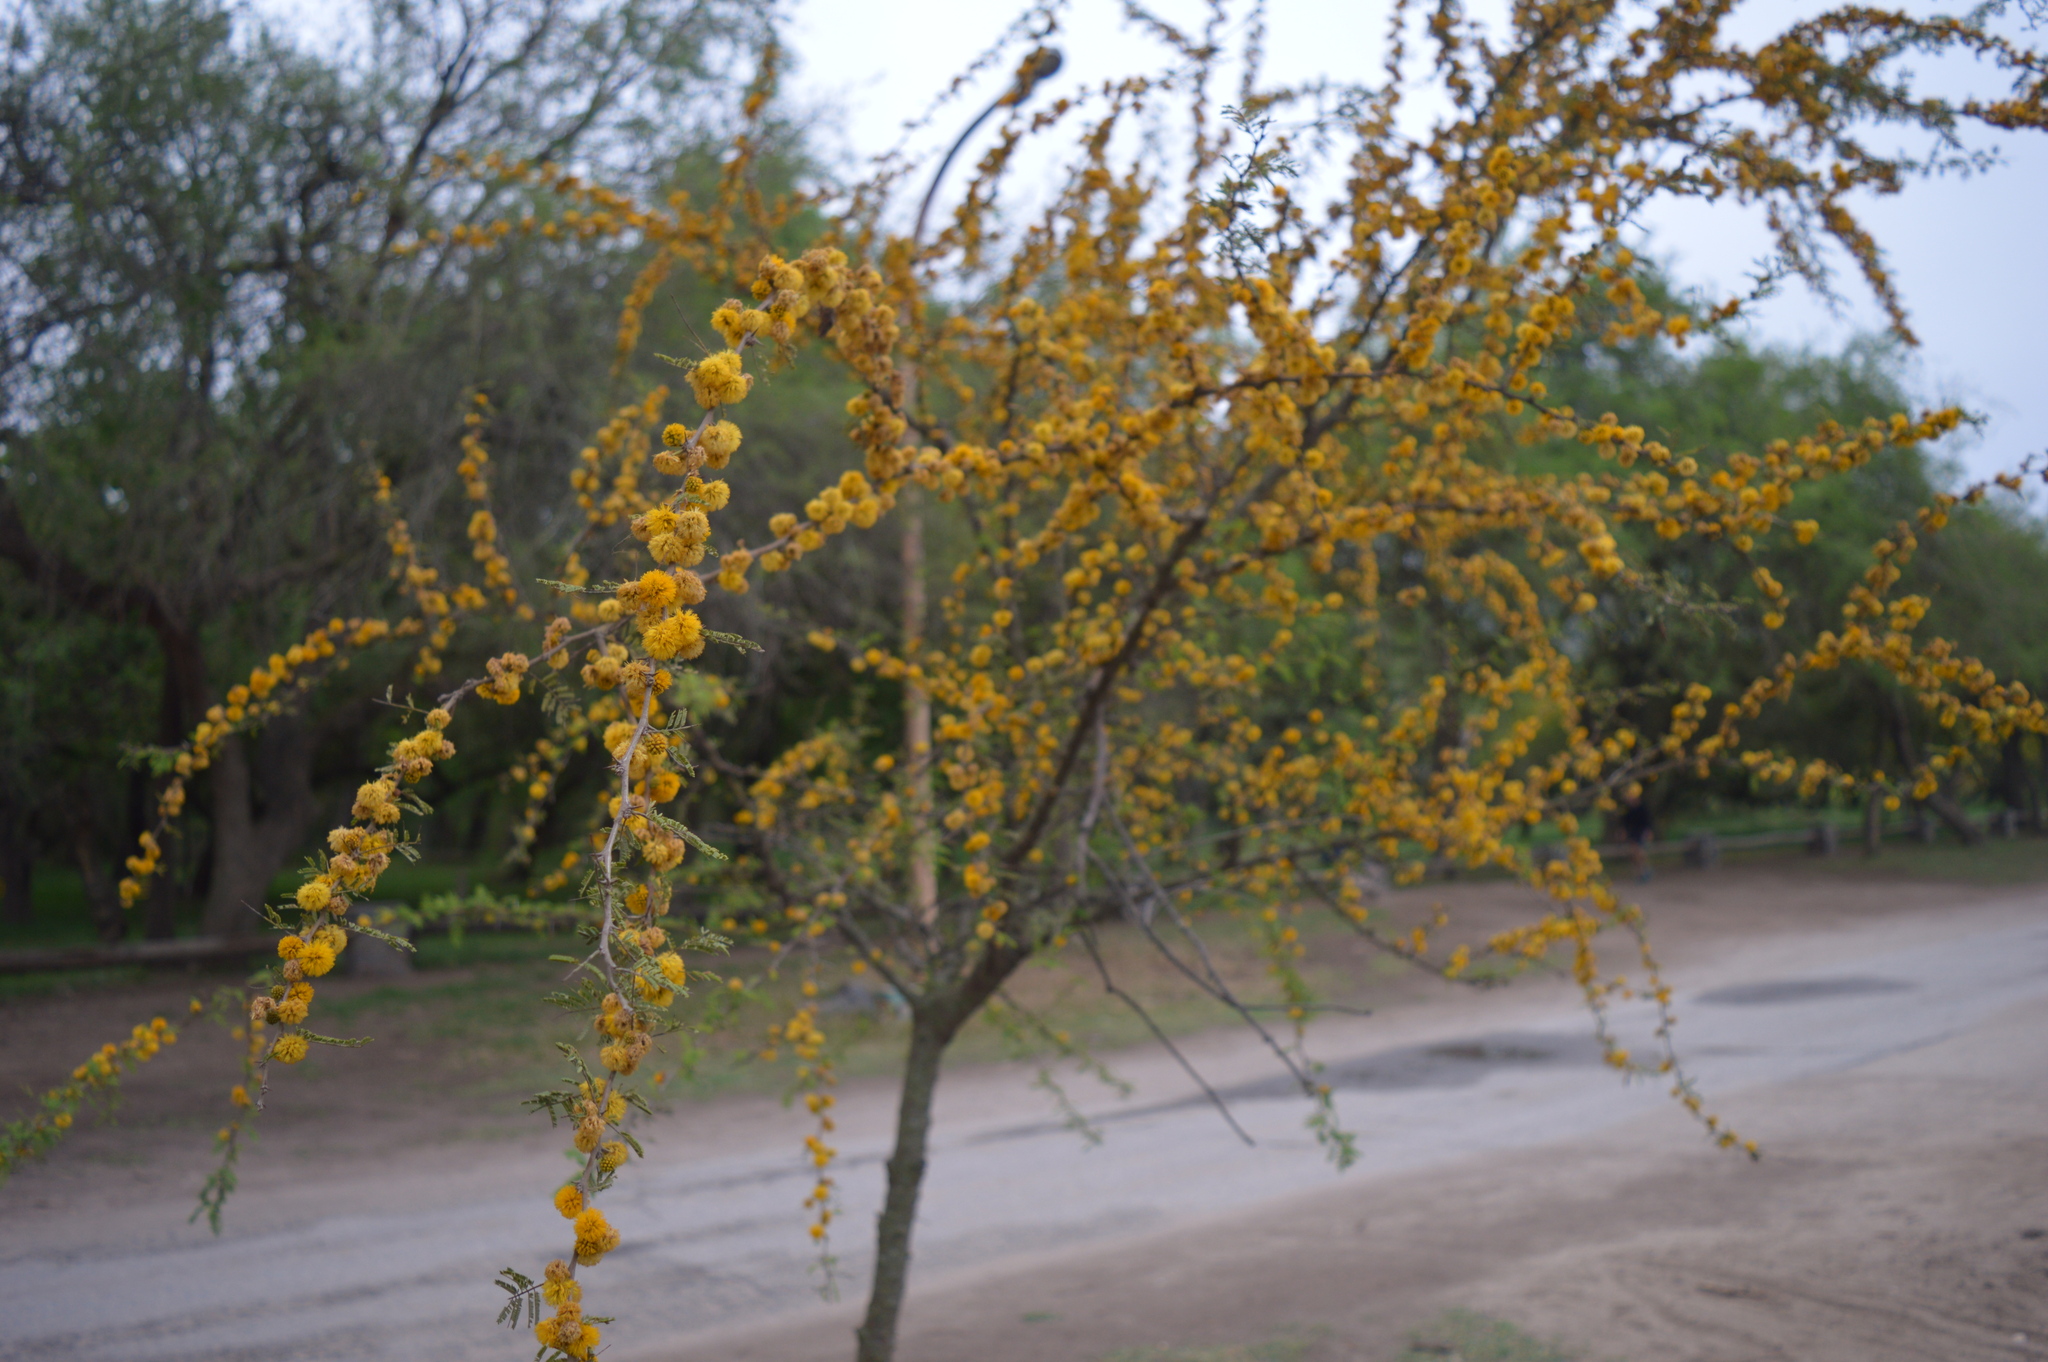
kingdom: Plantae
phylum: Tracheophyta
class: Magnoliopsida
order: Fabales
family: Fabaceae
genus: Vachellia
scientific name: Vachellia caven
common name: Roman cassie
